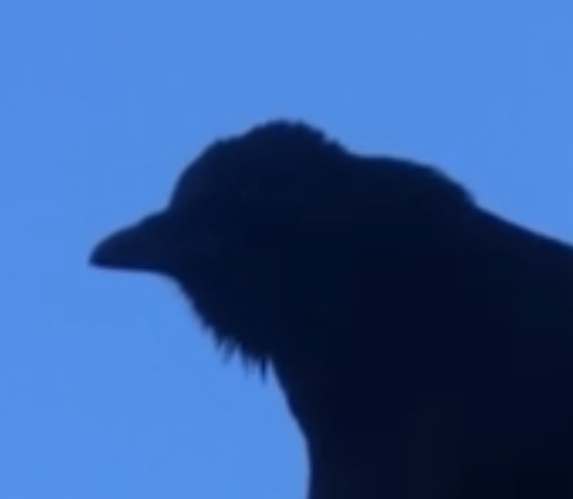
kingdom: Animalia
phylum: Chordata
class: Aves
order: Passeriformes
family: Corvidae
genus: Corvus
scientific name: Corvus corone
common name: Carrion crow
